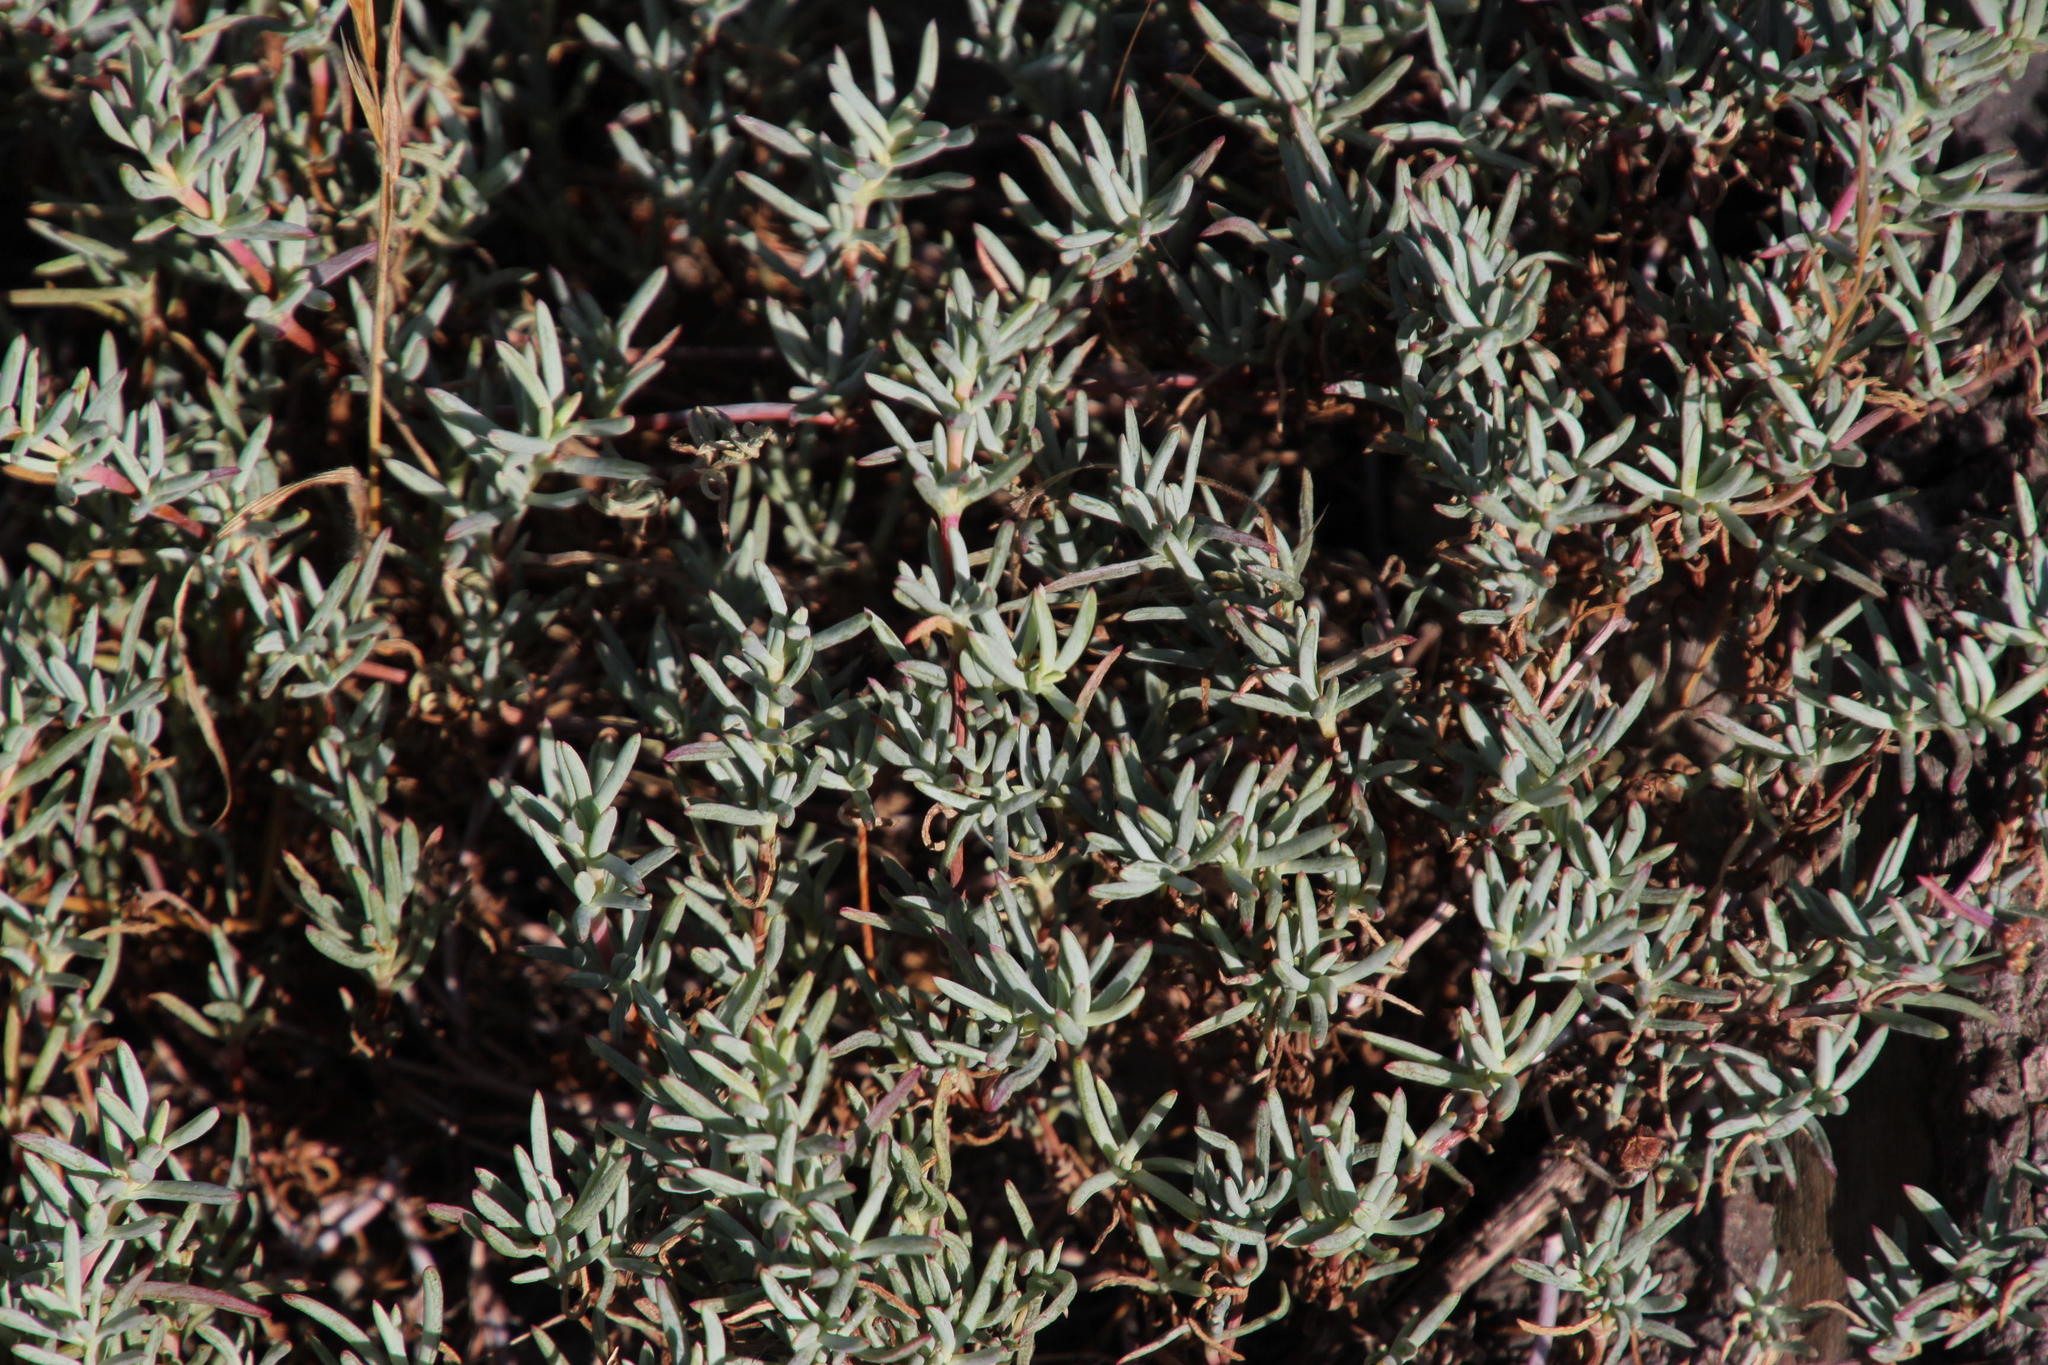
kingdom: Plantae
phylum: Tracheophyta
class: Magnoliopsida
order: Caryophyllales
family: Aizoaceae
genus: Lampranthus
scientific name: Lampranthus explanatus
